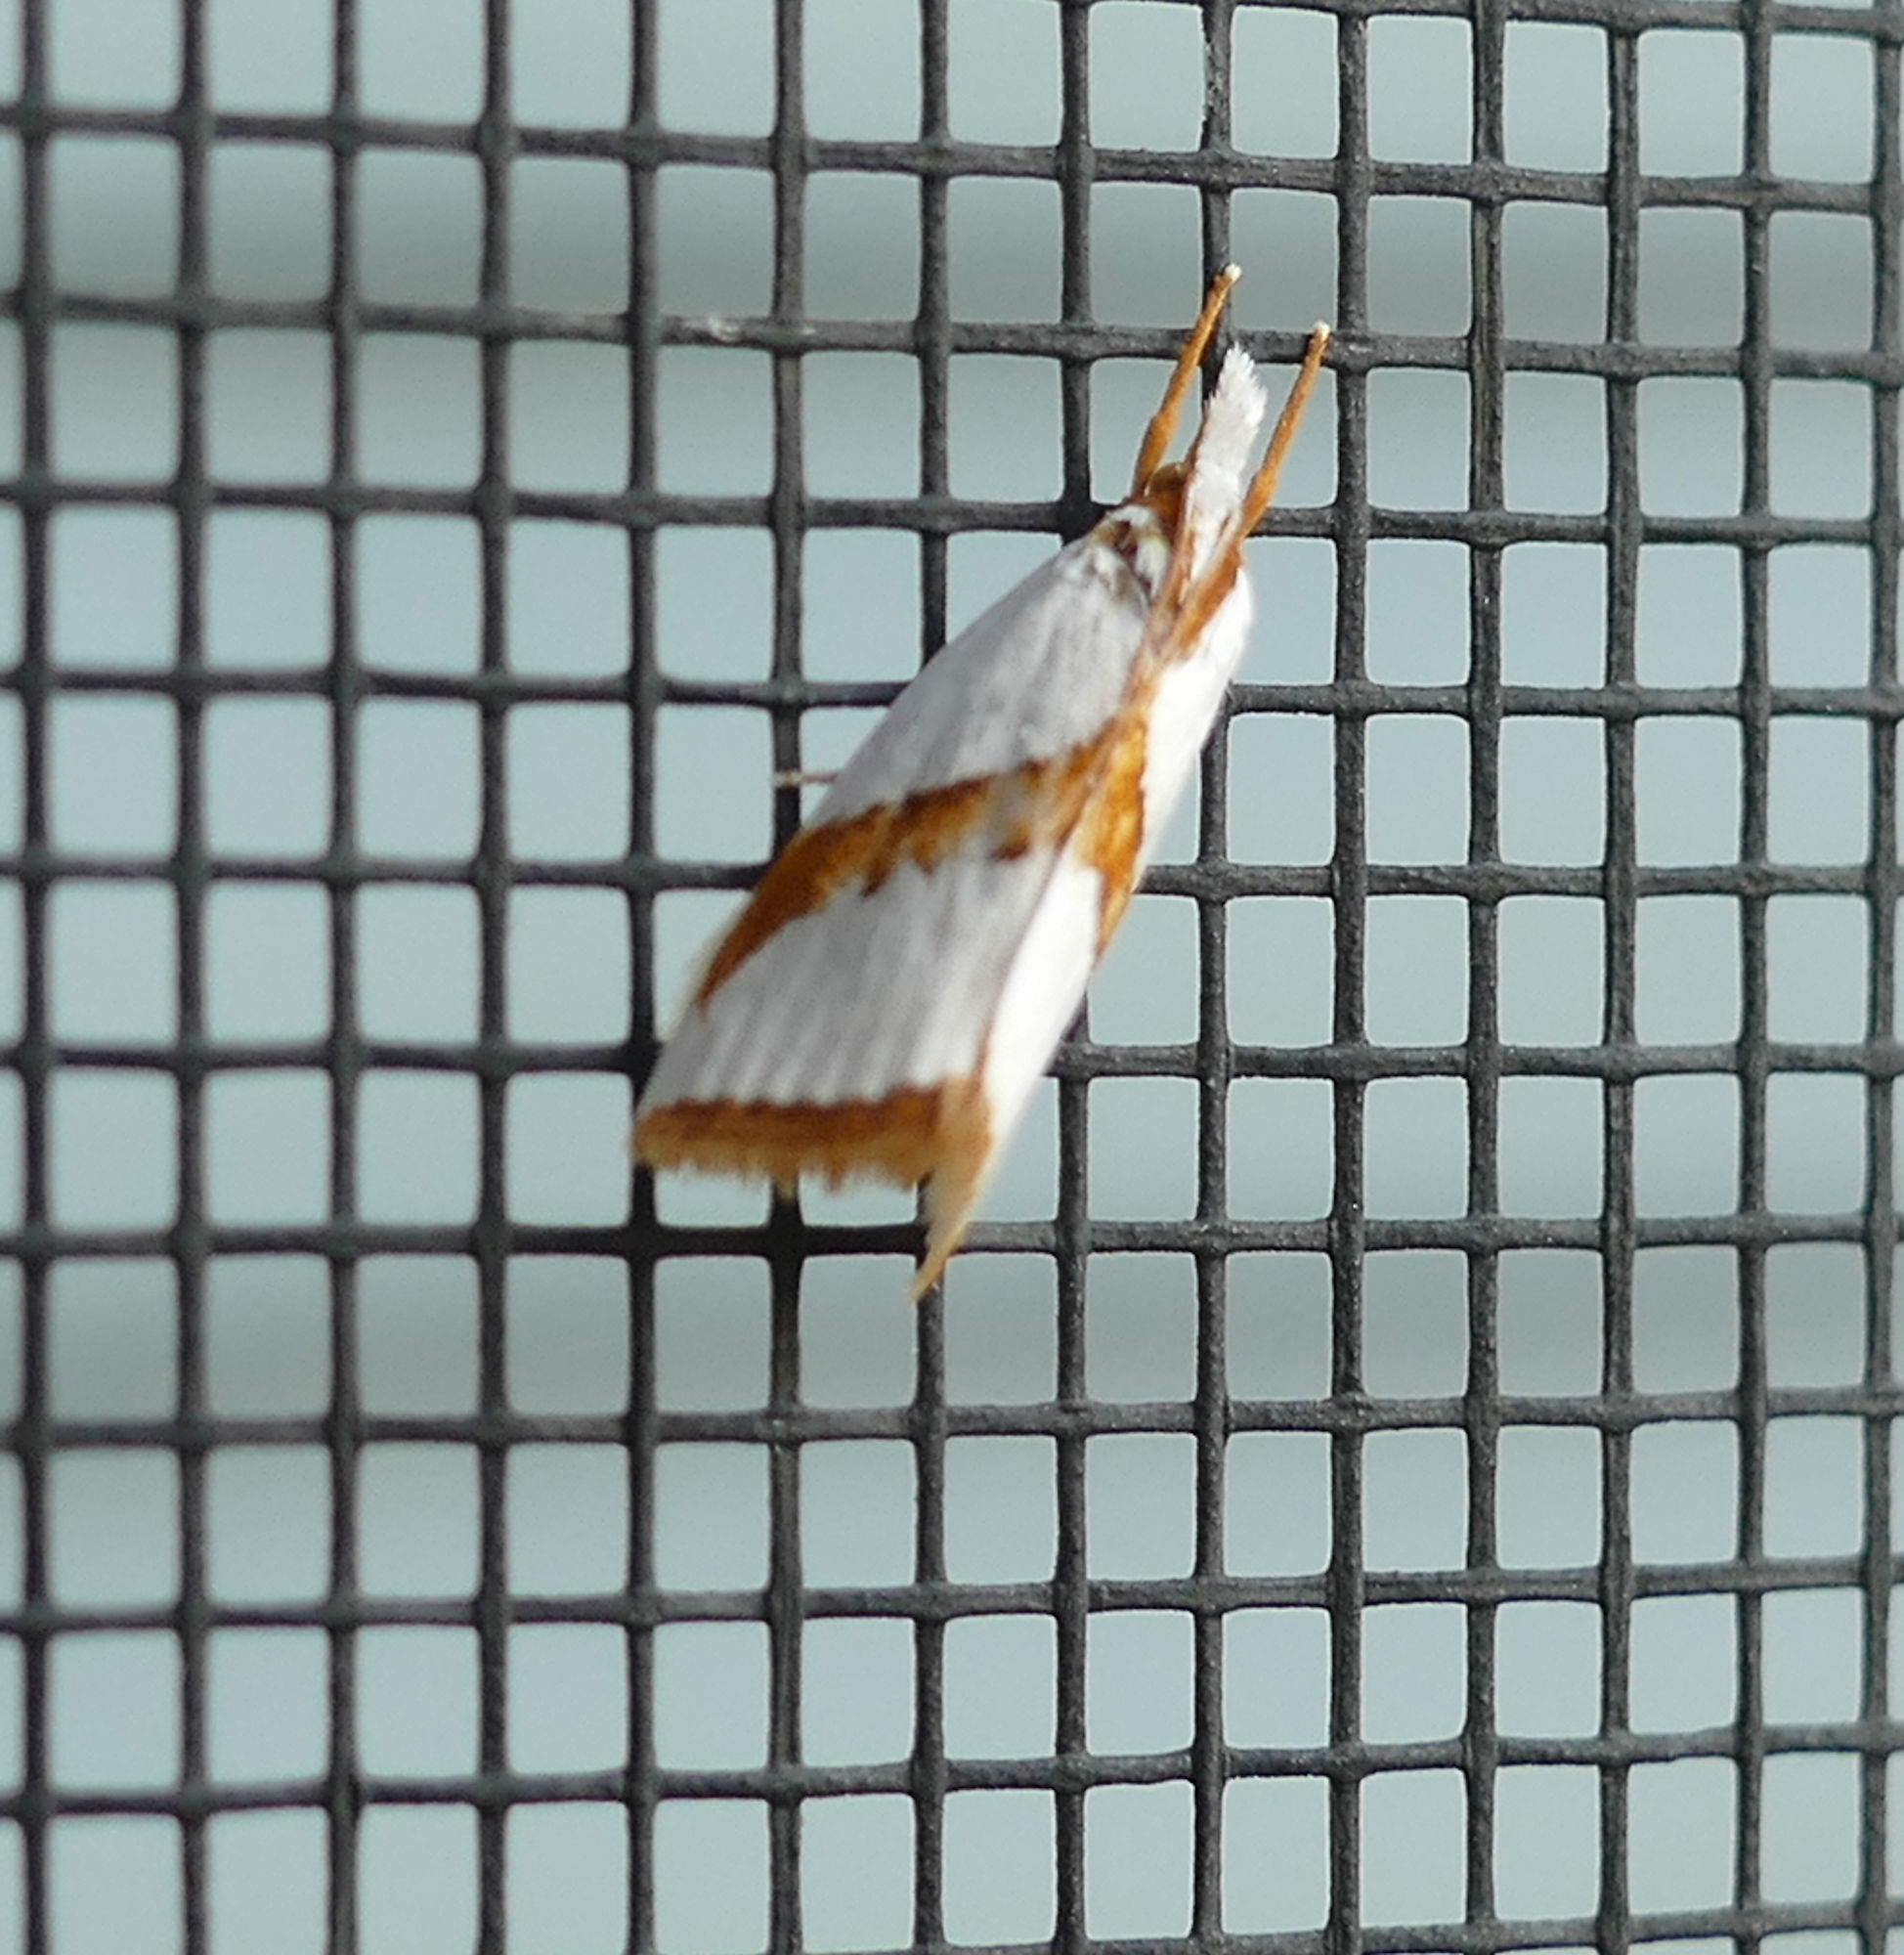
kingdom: Animalia
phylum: Arthropoda
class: Insecta
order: Lepidoptera
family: Crambidae
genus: Vaxi
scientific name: Vaxi critica
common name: Straight-lined vaxi moth
